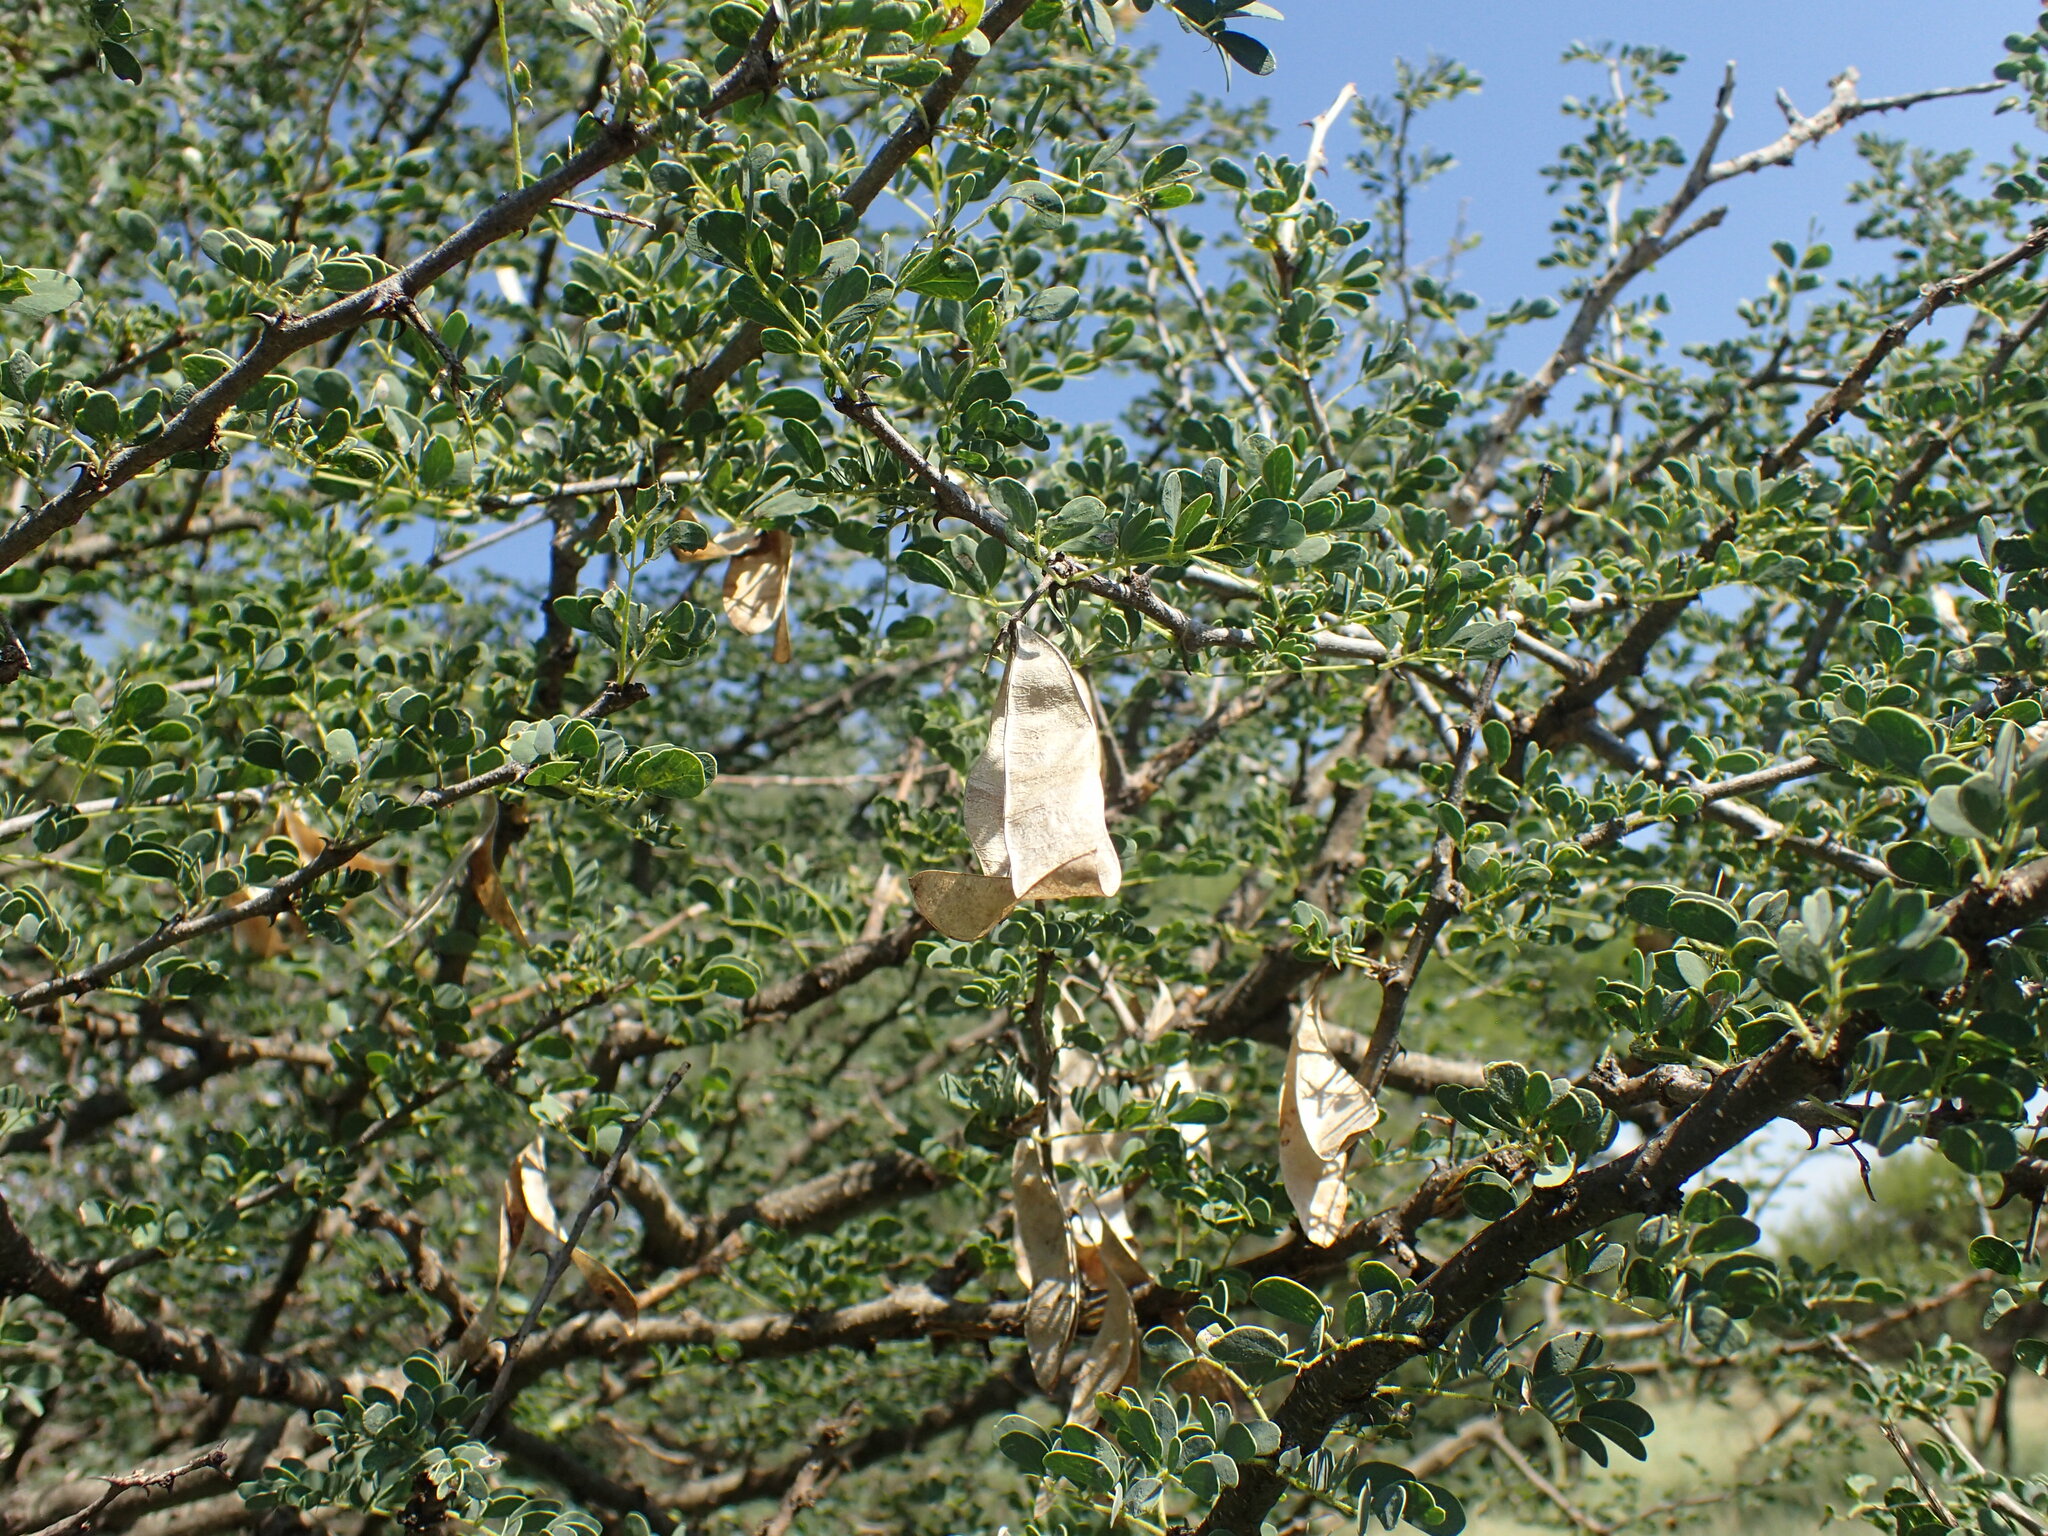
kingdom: Plantae
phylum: Tracheophyta
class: Magnoliopsida
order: Fabales
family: Fabaceae
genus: Senegalia
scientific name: Senegalia mellifera
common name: Hookthorn
